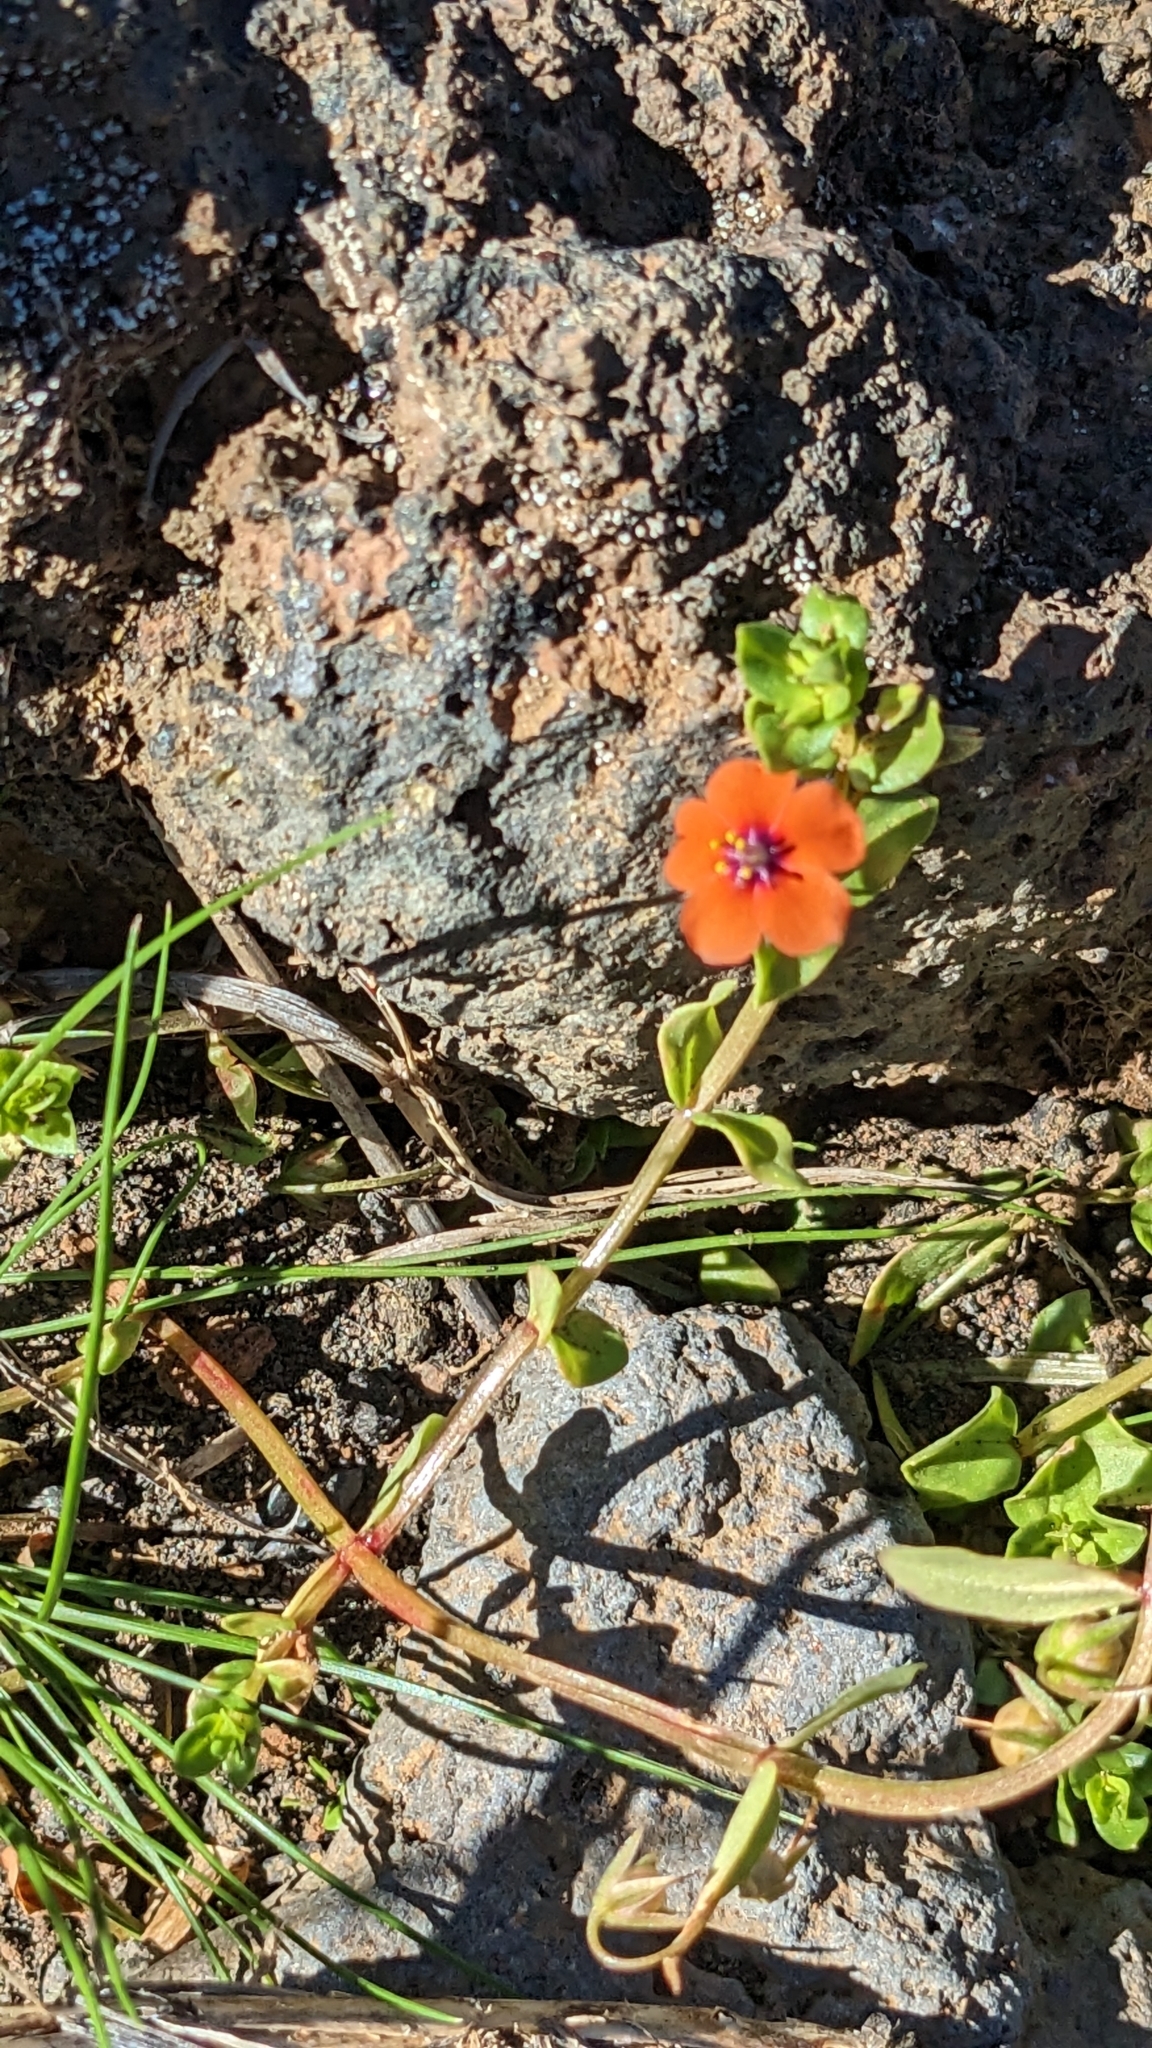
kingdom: Plantae
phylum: Tracheophyta
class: Magnoliopsida
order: Ericales
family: Primulaceae
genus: Lysimachia
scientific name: Lysimachia arvensis
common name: Scarlet pimpernel
